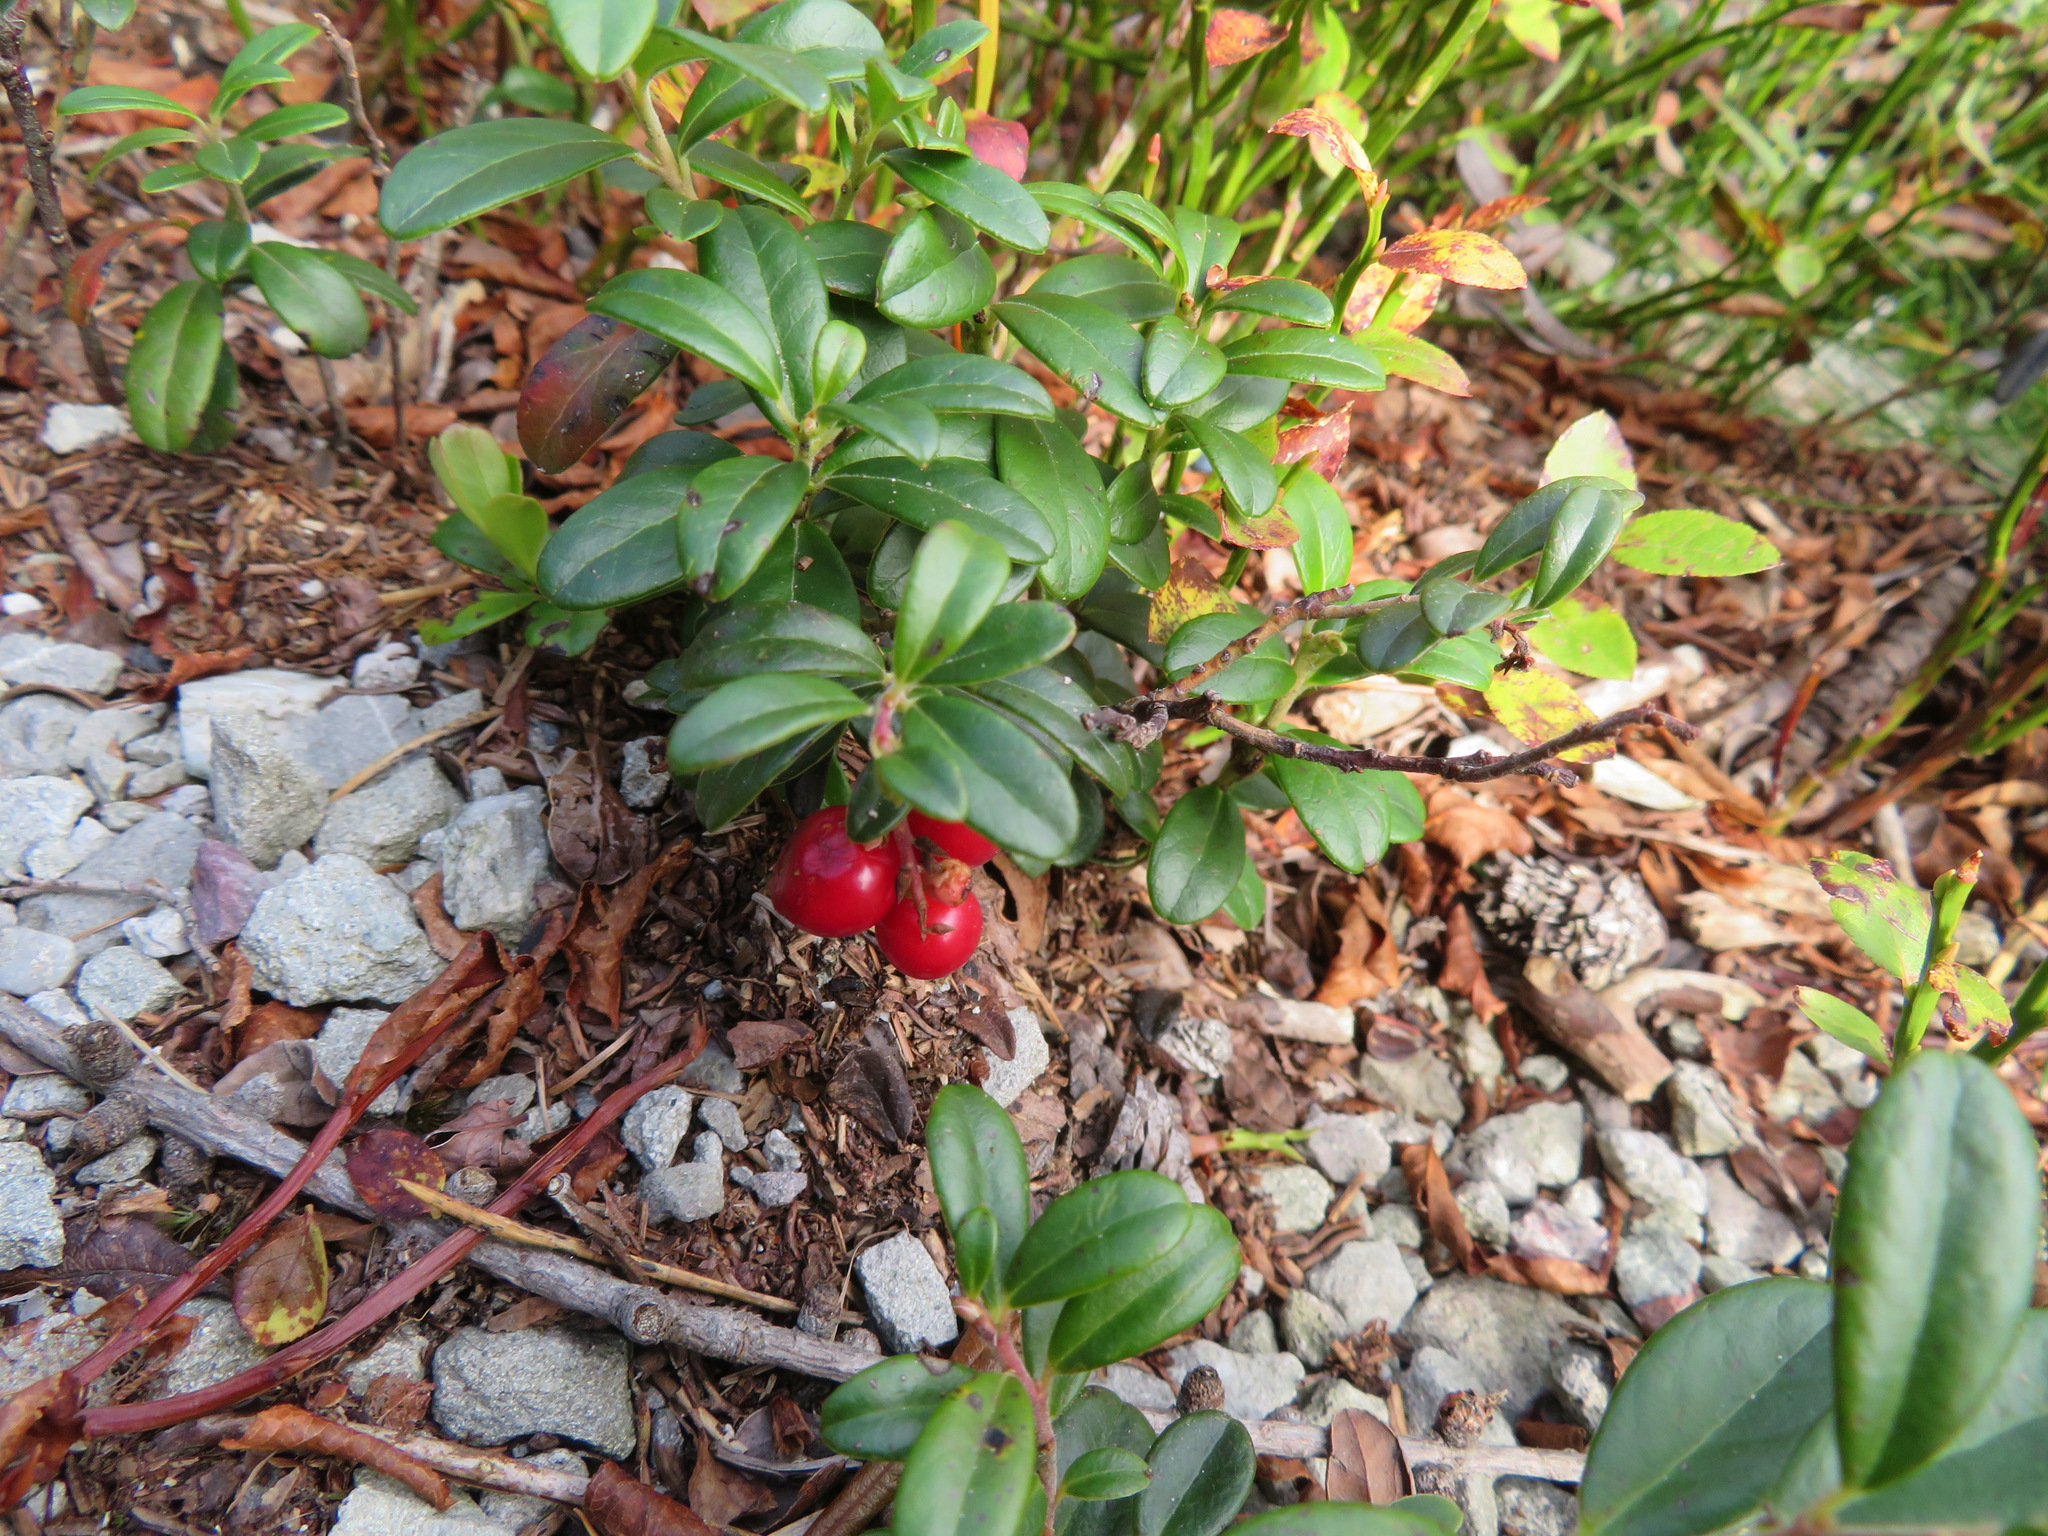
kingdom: Plantae
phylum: Tracheophyta
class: Magnoliopsida
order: Ericales
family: Ericaceae
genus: Vaccinium
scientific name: Vaccinium vitis-idaea
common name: Cowberry
